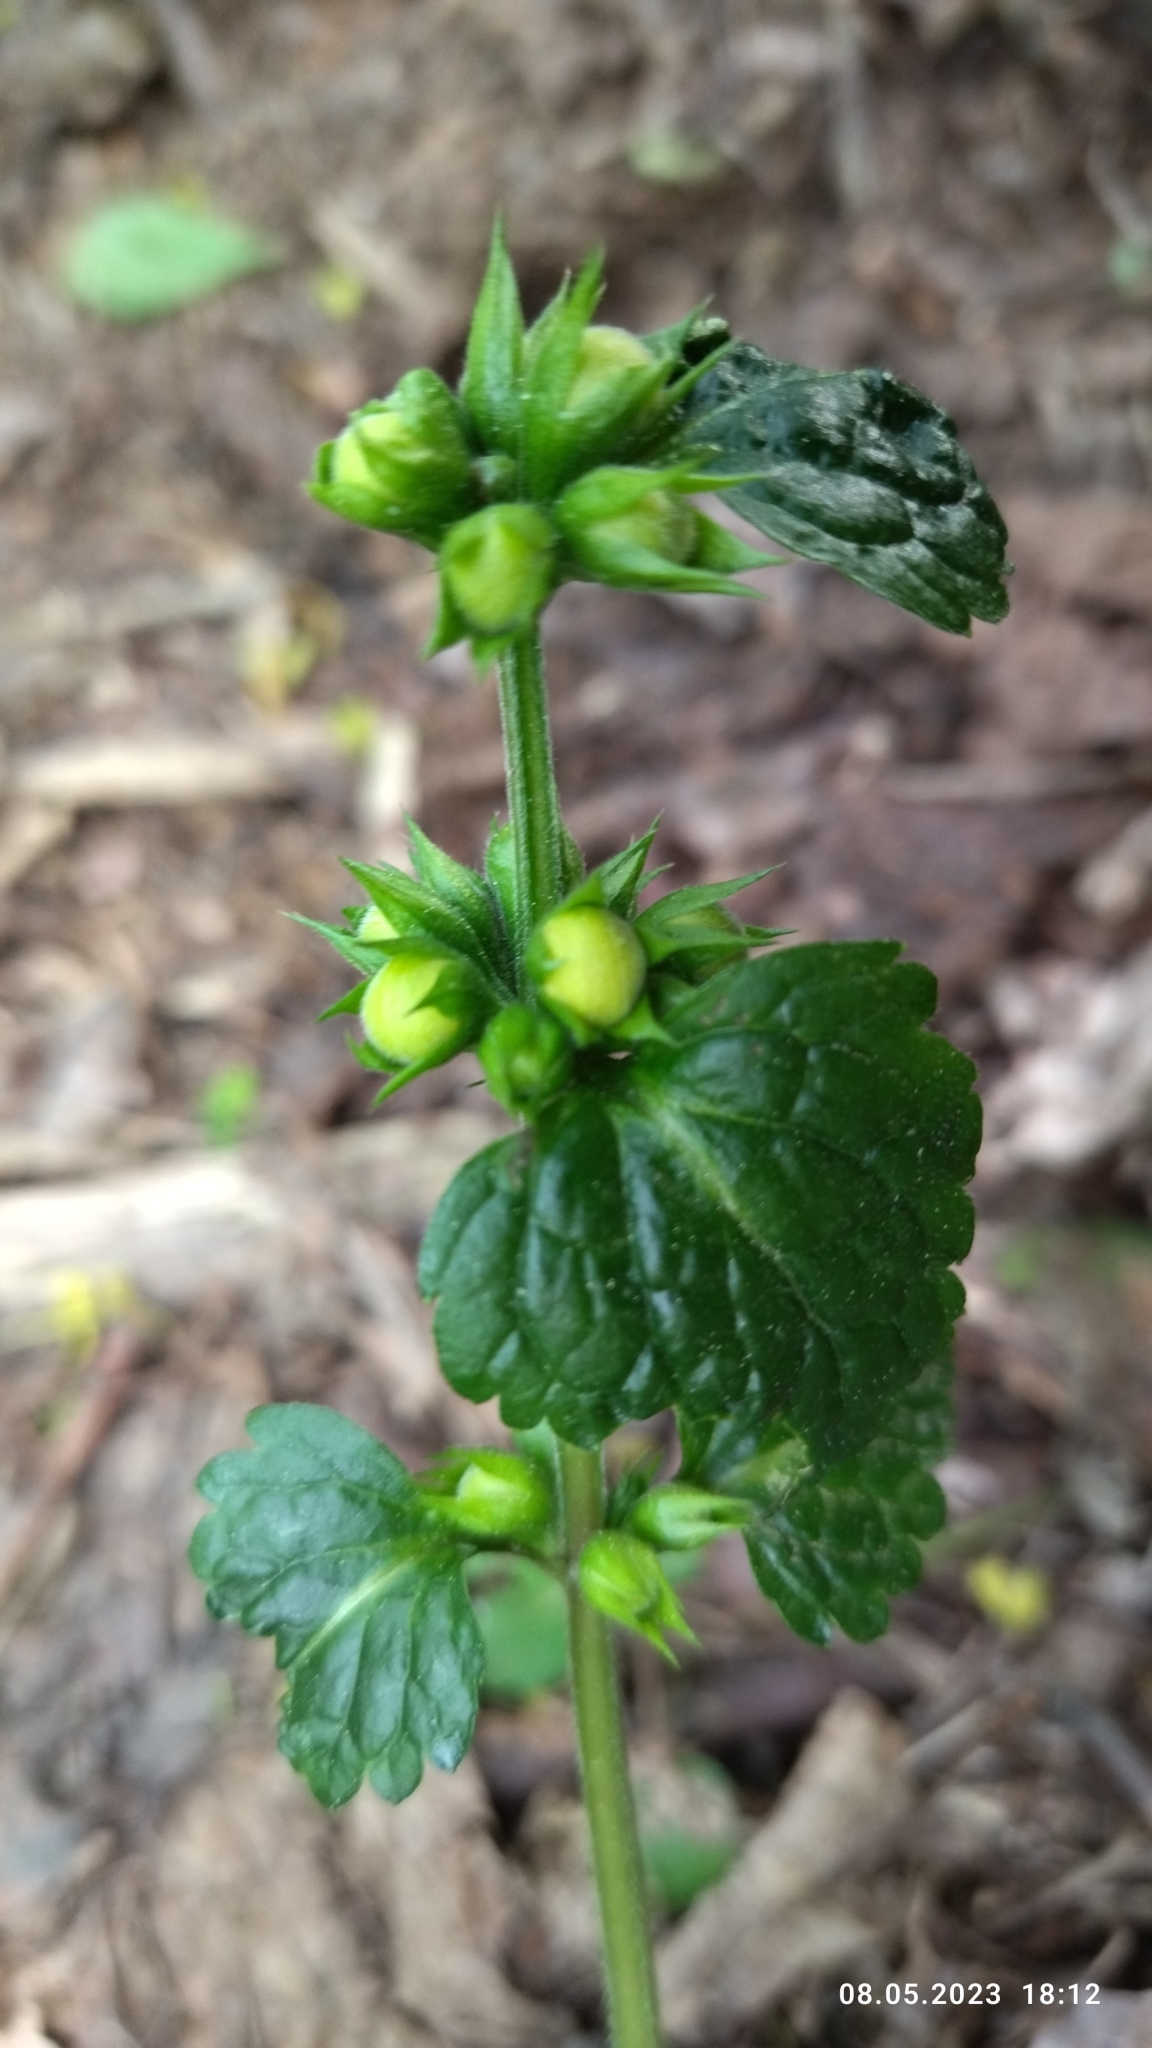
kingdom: Plantae
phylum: Tracheophyta
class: Magnoliopsida
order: Lamiales
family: Lamiaceae
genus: Lamium
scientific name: Lamium galeobdolon
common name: Yellow archangel
